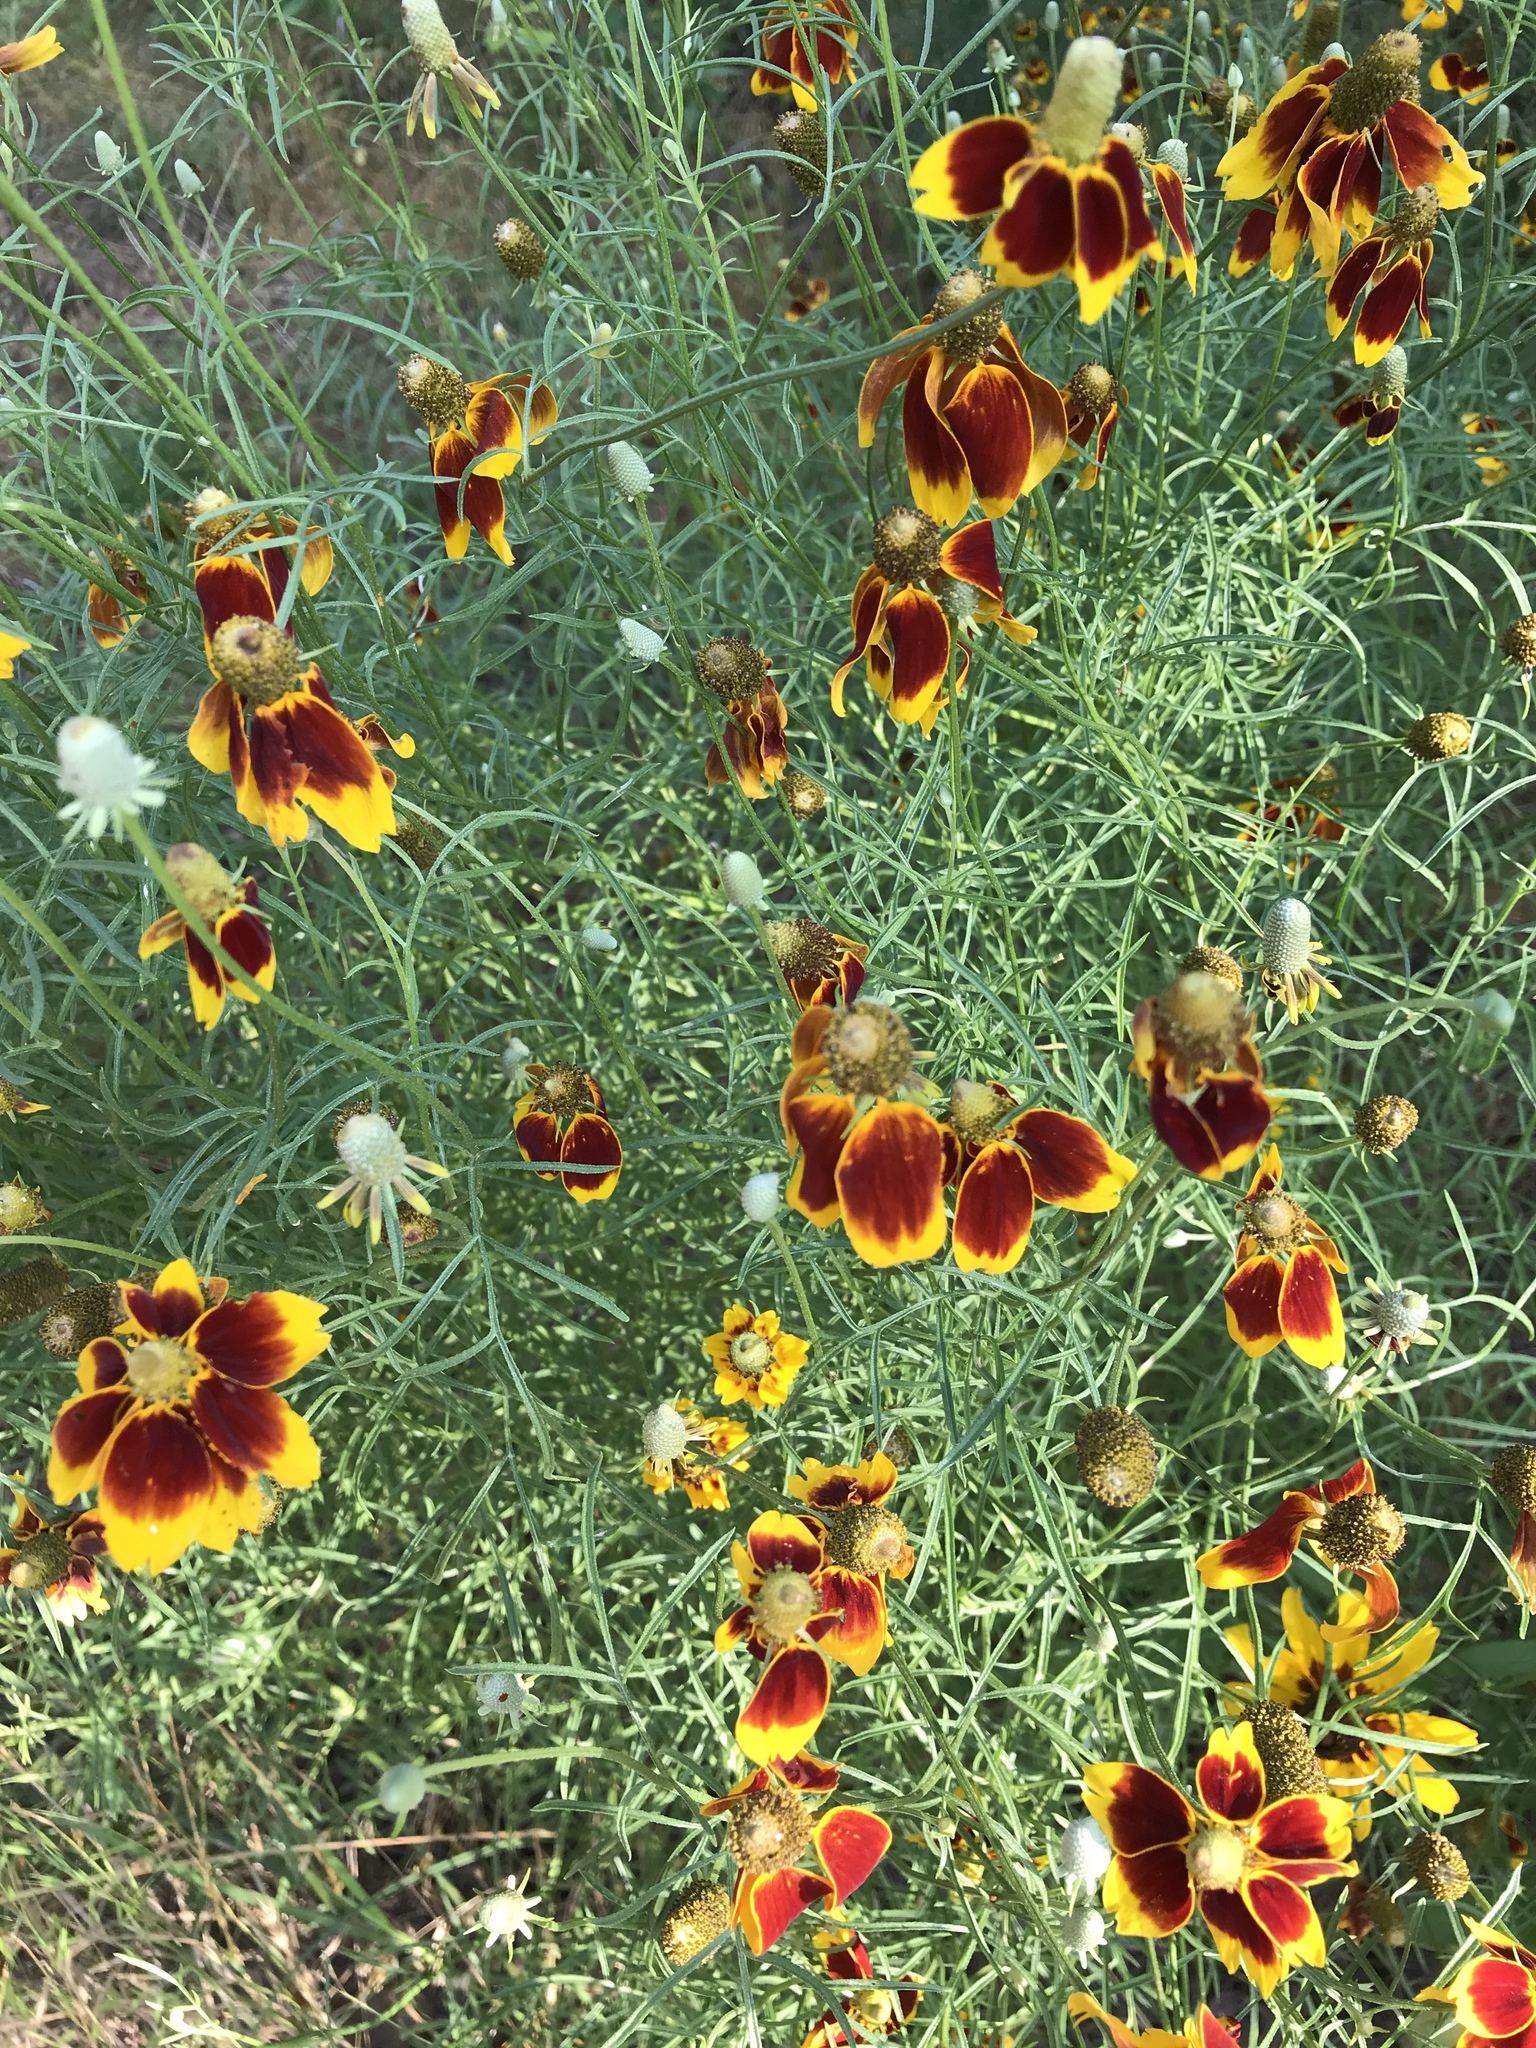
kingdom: Plantae
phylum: Tracheophyta
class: Magnoliopsida
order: Asterales
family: Asteraceae
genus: Ratibida
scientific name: Ratibida columnifera
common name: Prairie coneflower
